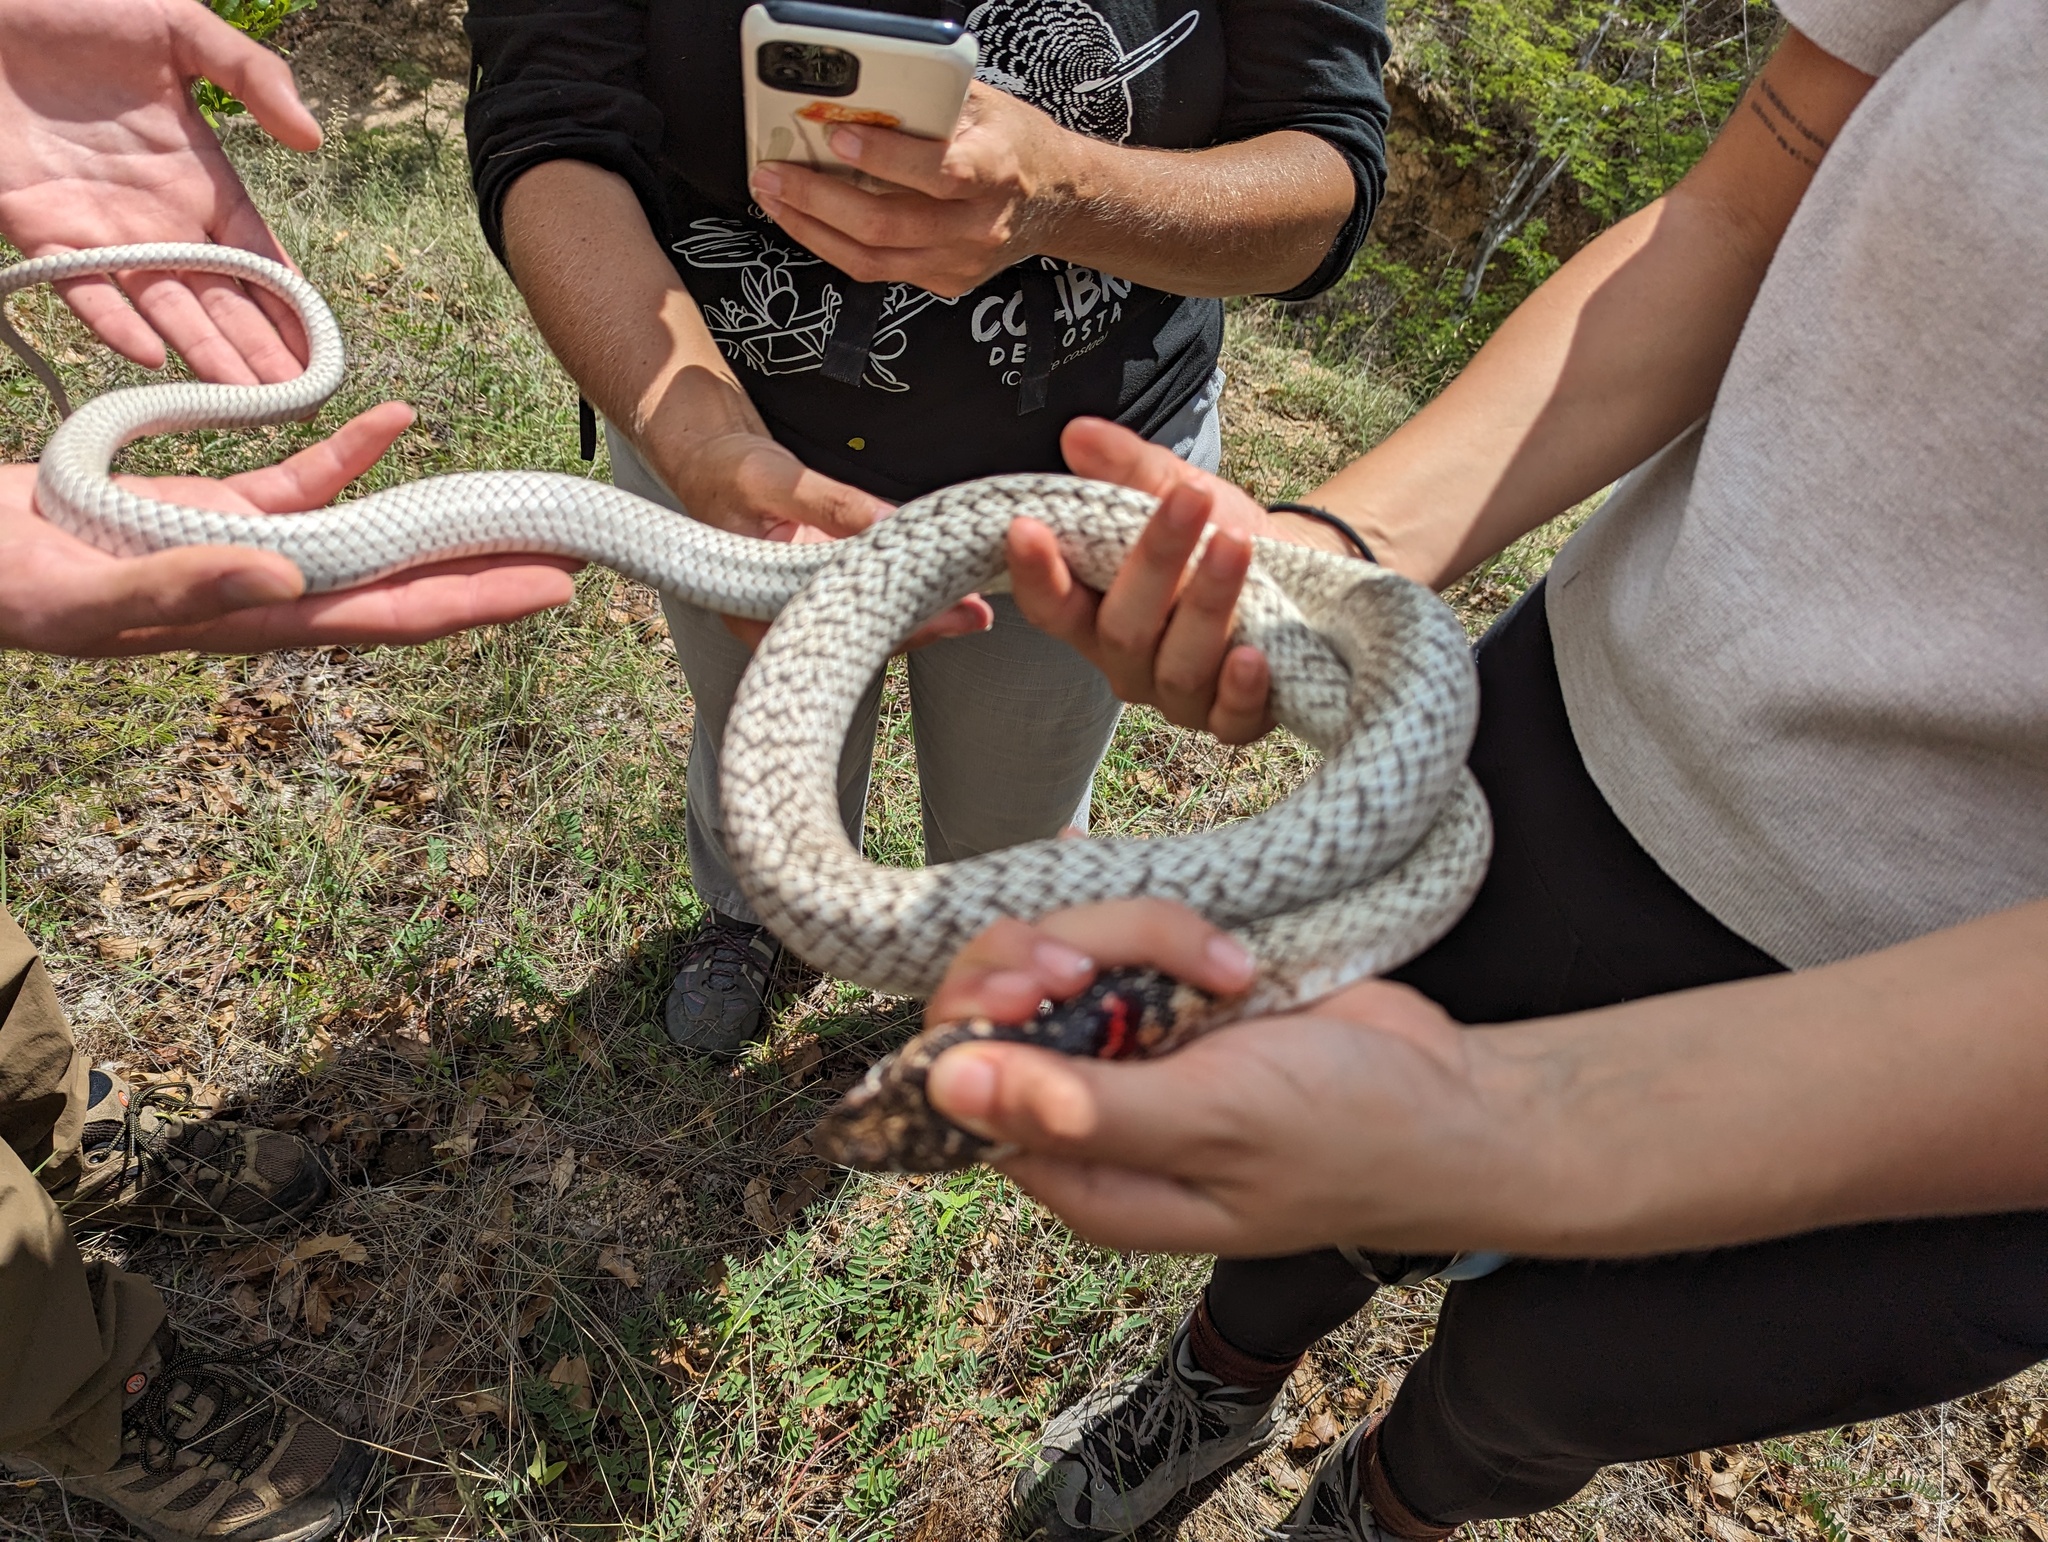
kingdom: Animalia
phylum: Chordata
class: Squamata
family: Colubridae
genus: Masticophis
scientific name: Masticophis fuliginosus
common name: Baja california coachwhip
